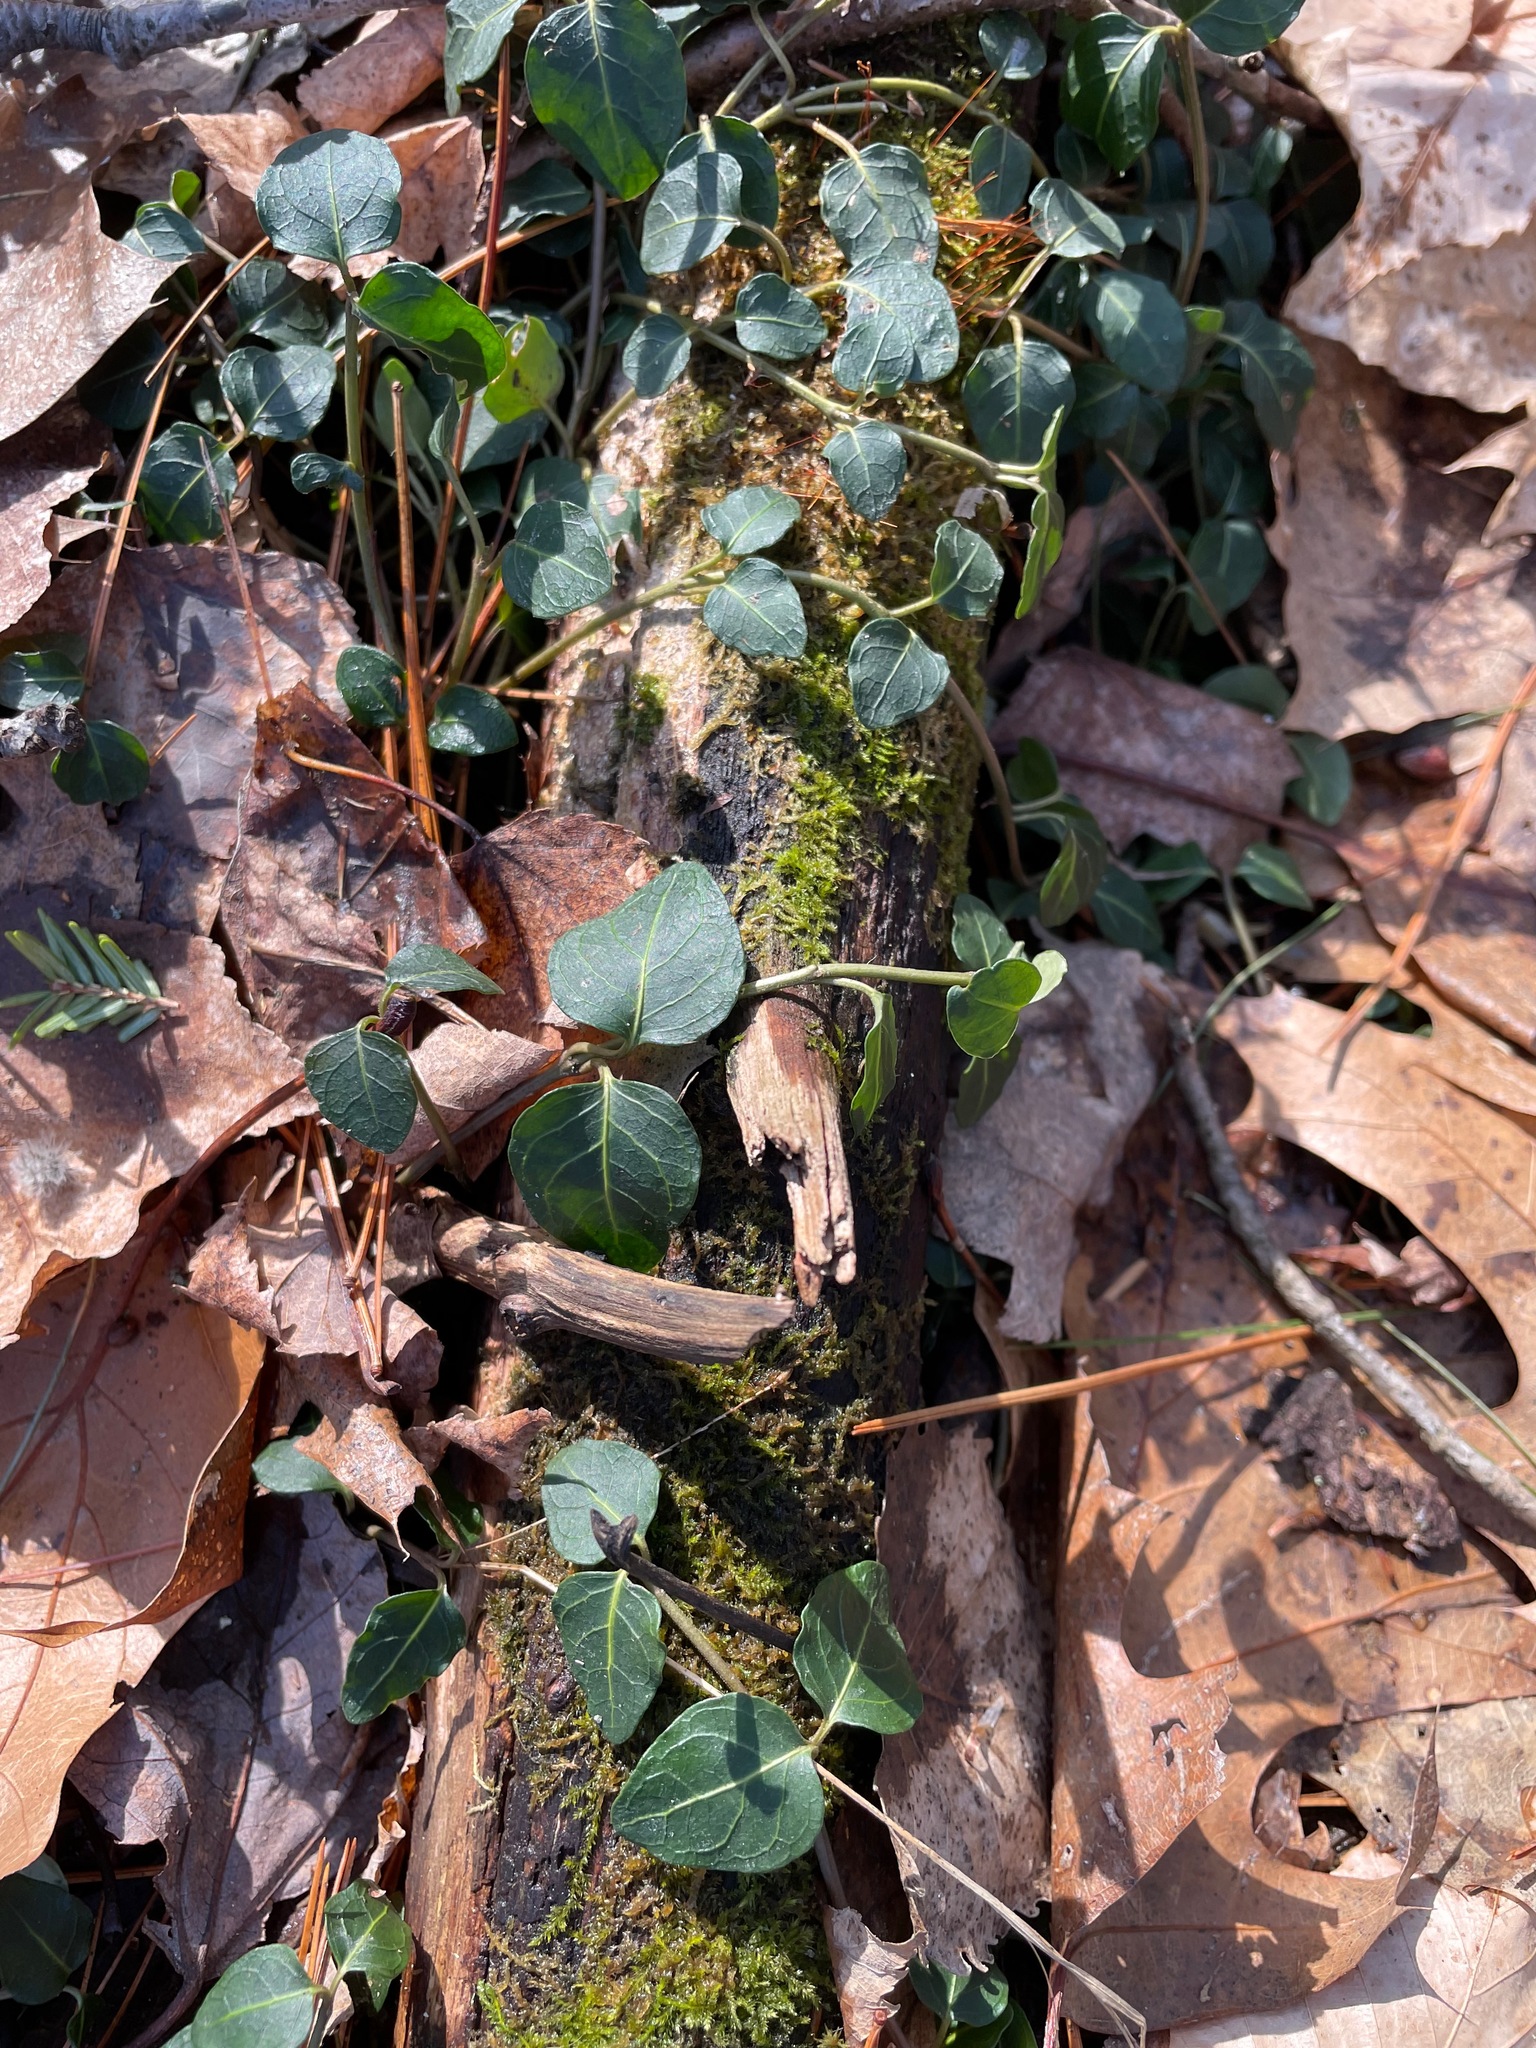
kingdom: Plantae
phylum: Tracheophyta
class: Magnoliopsida
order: Gentianales
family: Rubiaceae
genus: Mitchella
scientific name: Mitchella repens
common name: Partridge-berry
